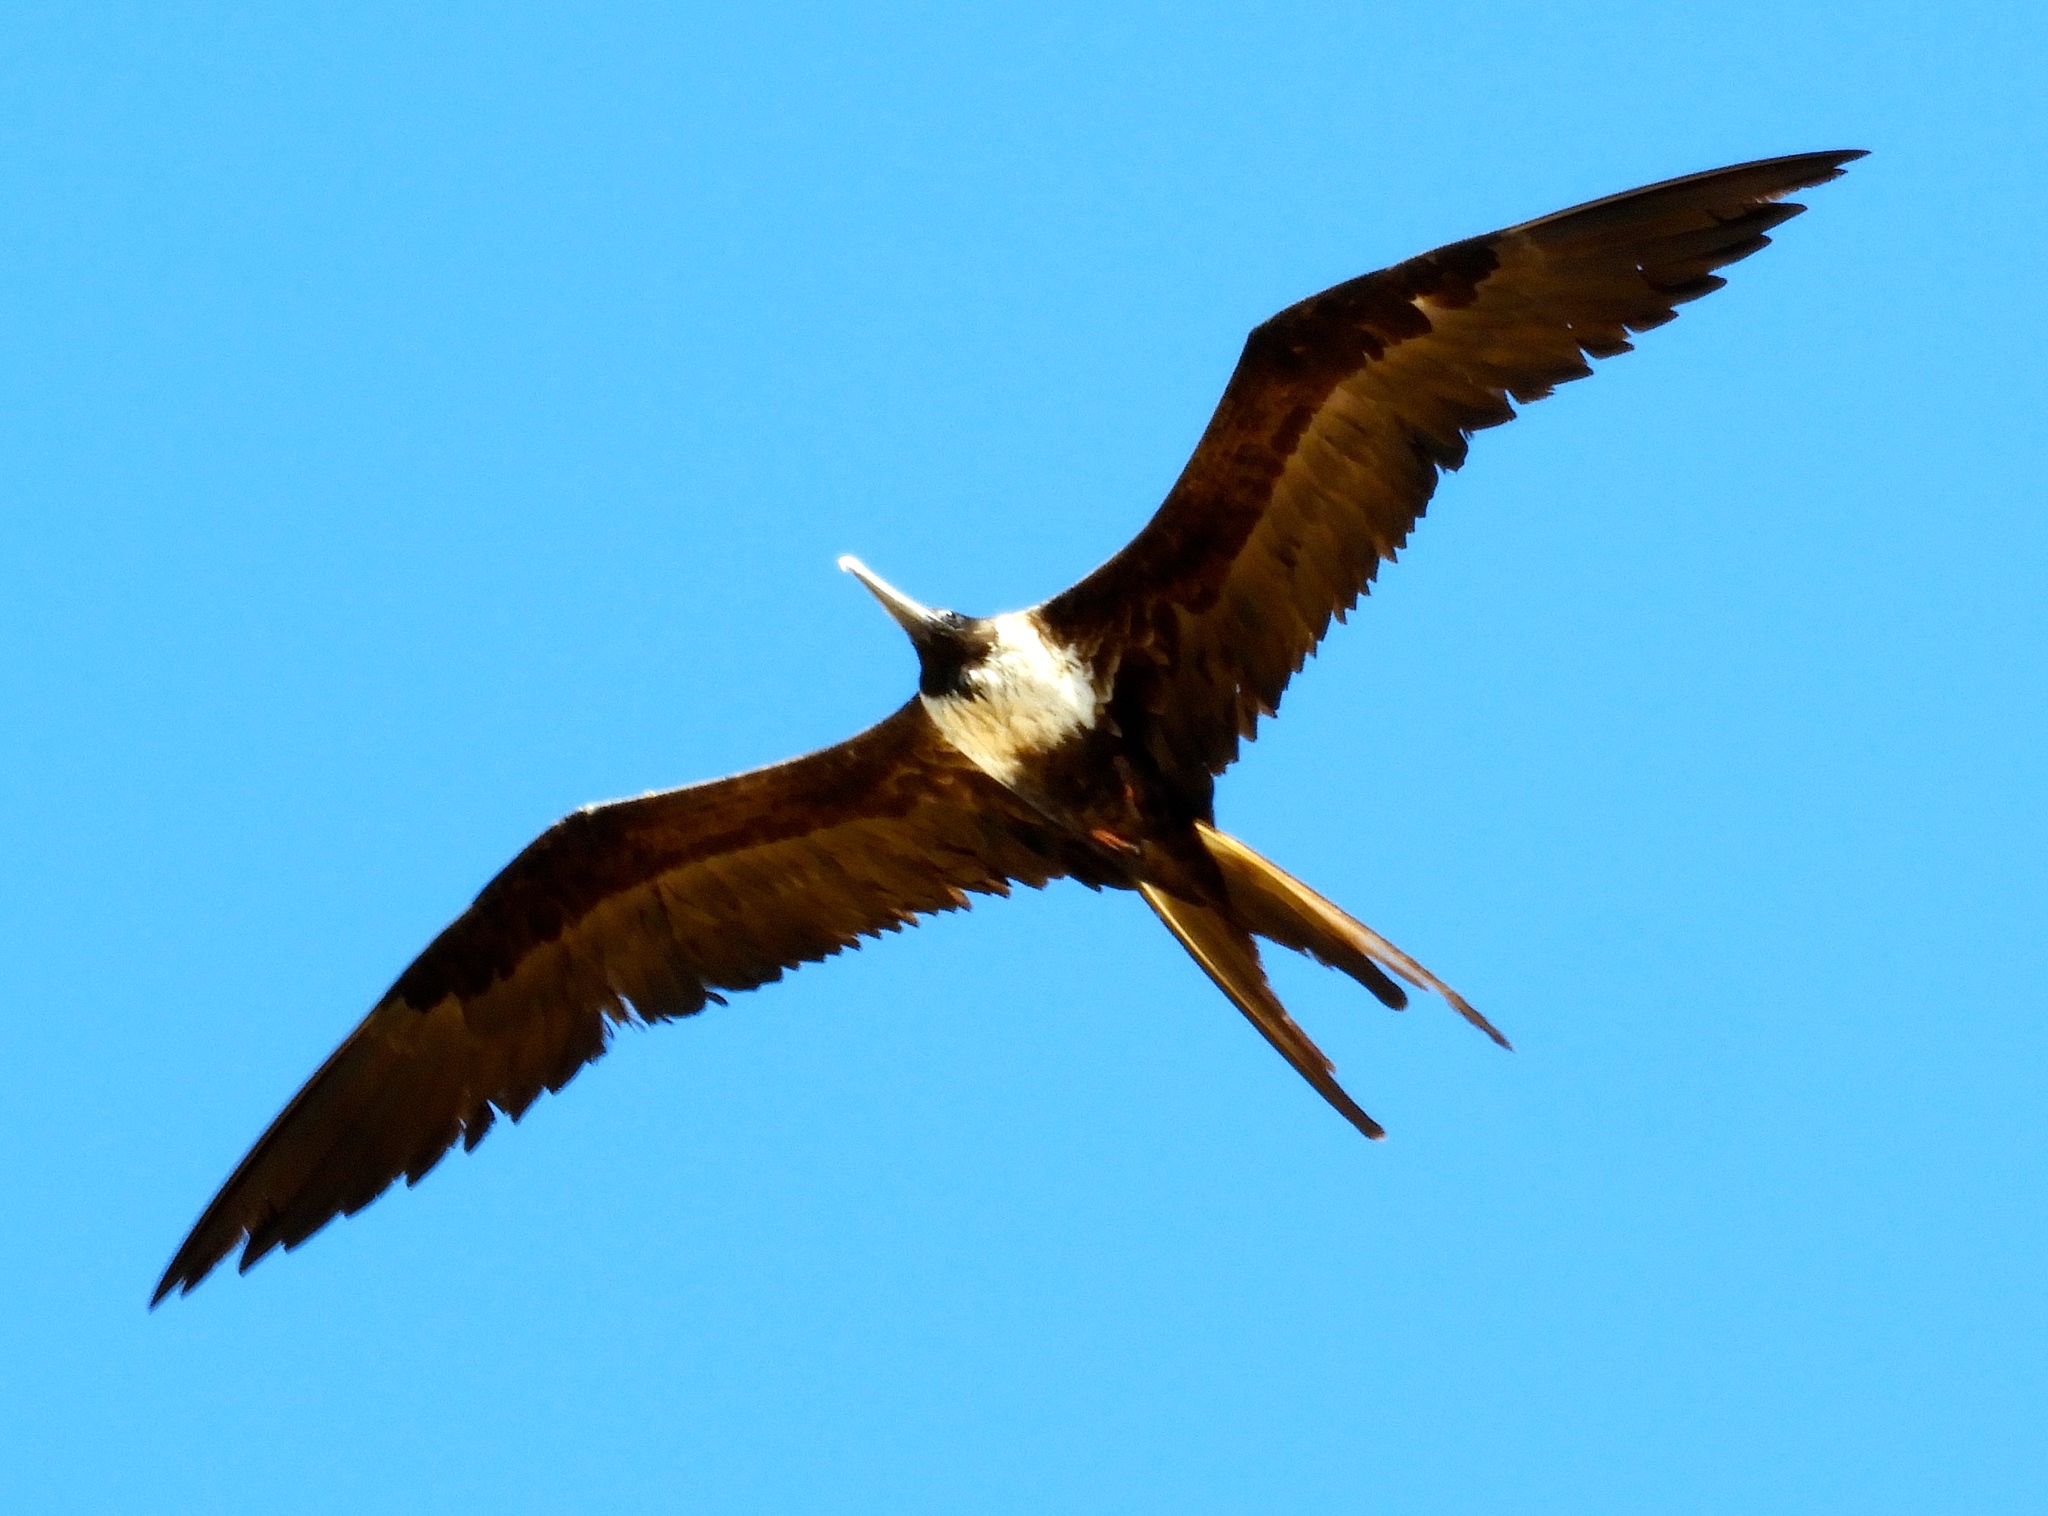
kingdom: Animalia
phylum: Chordata
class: Aves
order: Suliformes
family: Fregatidae
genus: Fregata
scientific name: Fregata magnificens
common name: Magnificent frigatebird
